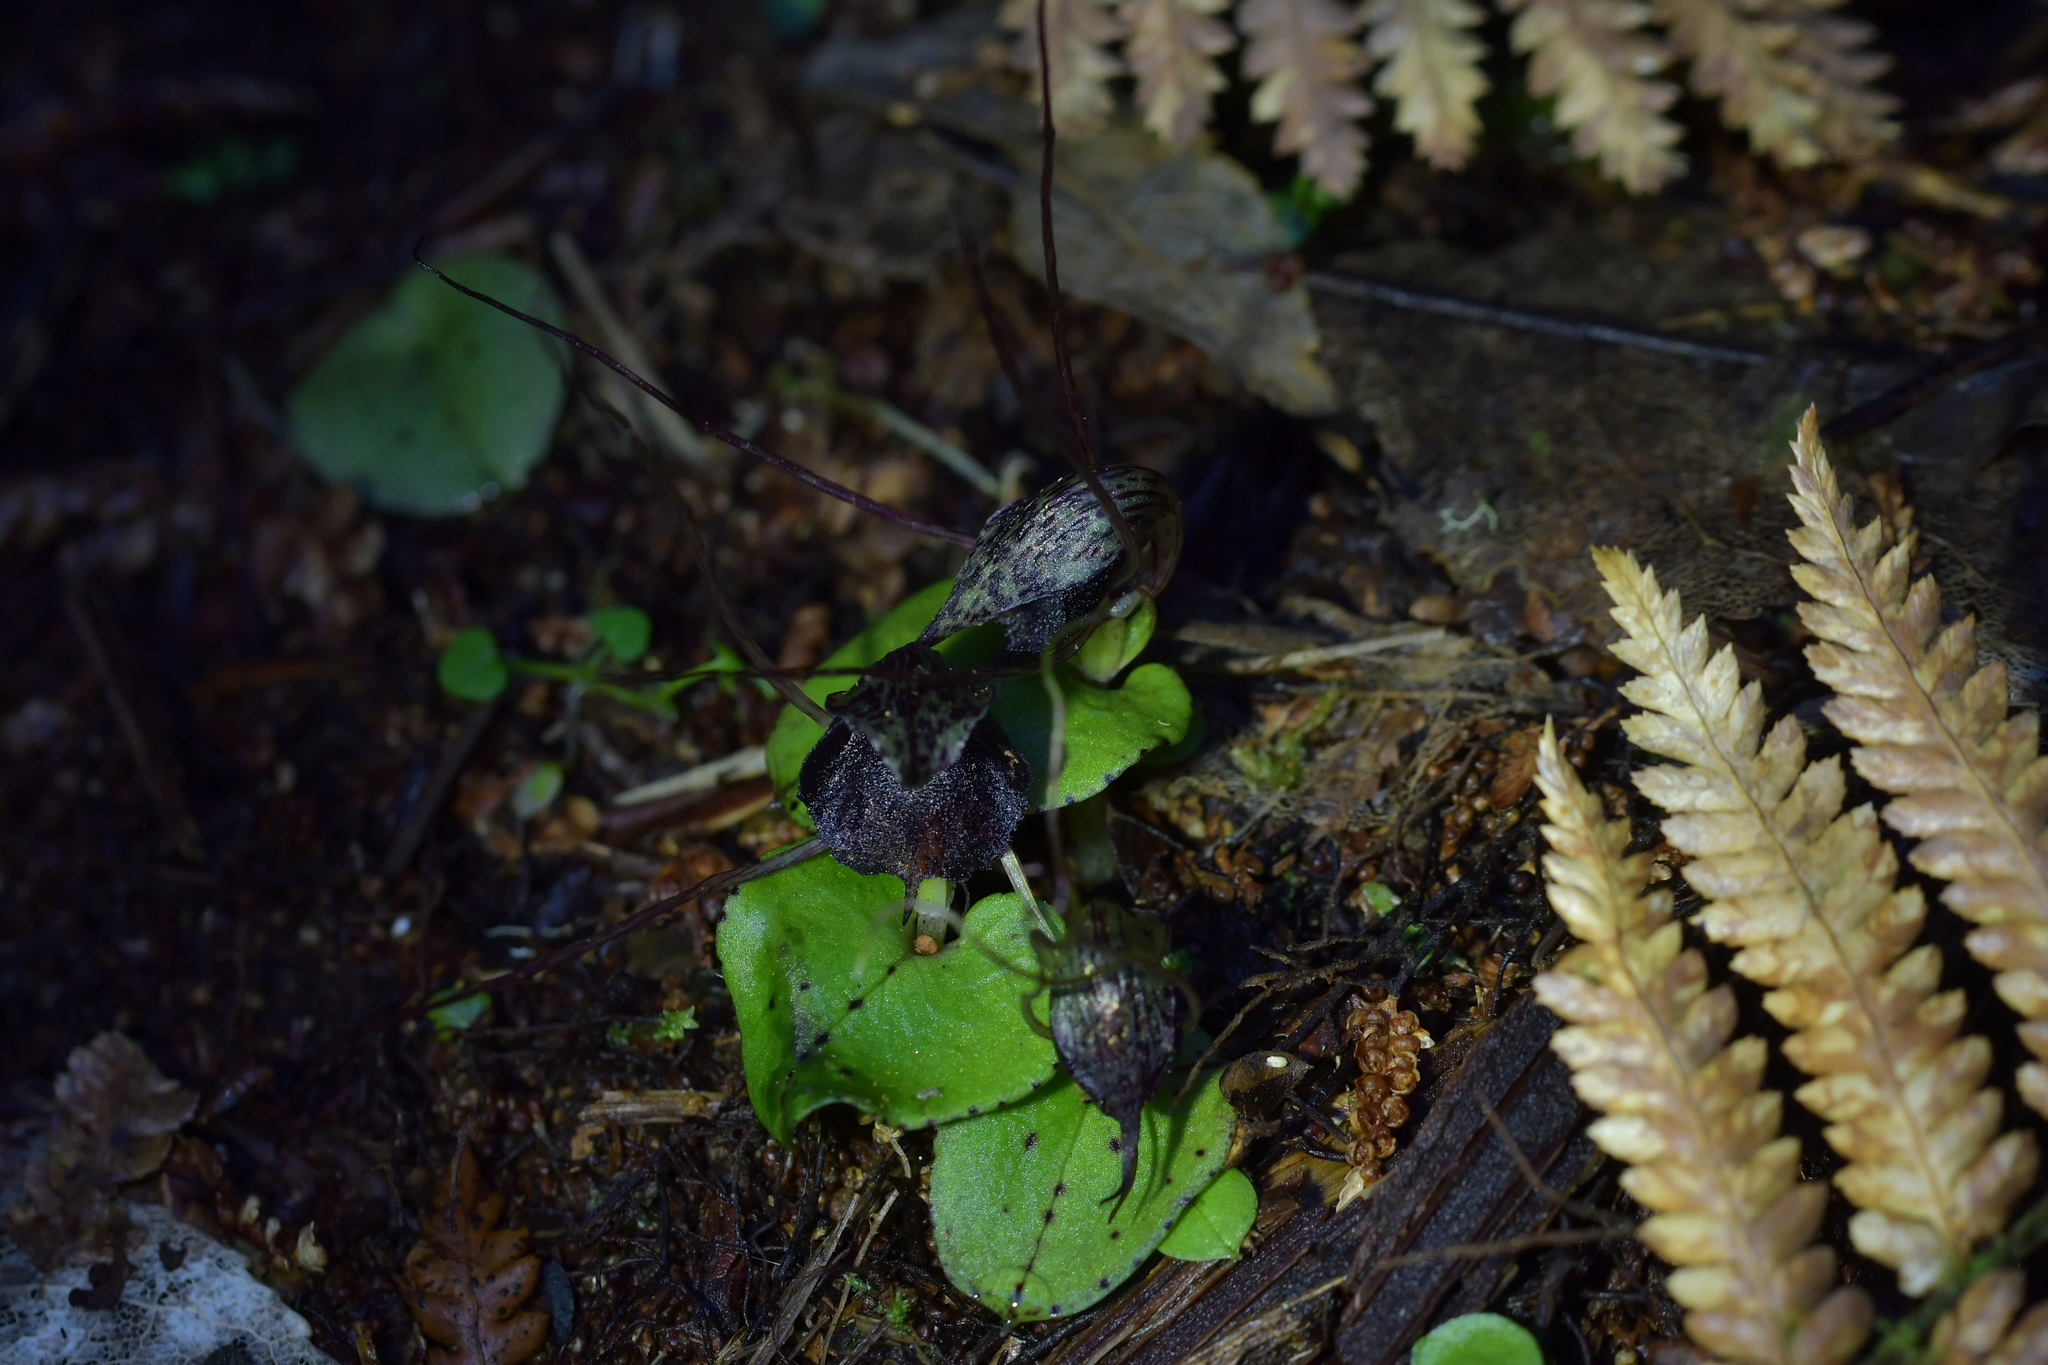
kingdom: Plantae
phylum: Tracheophyta
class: Liliopsida
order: Asparagales
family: Orchidaceae
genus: Corybas
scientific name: Corybas iridescens
